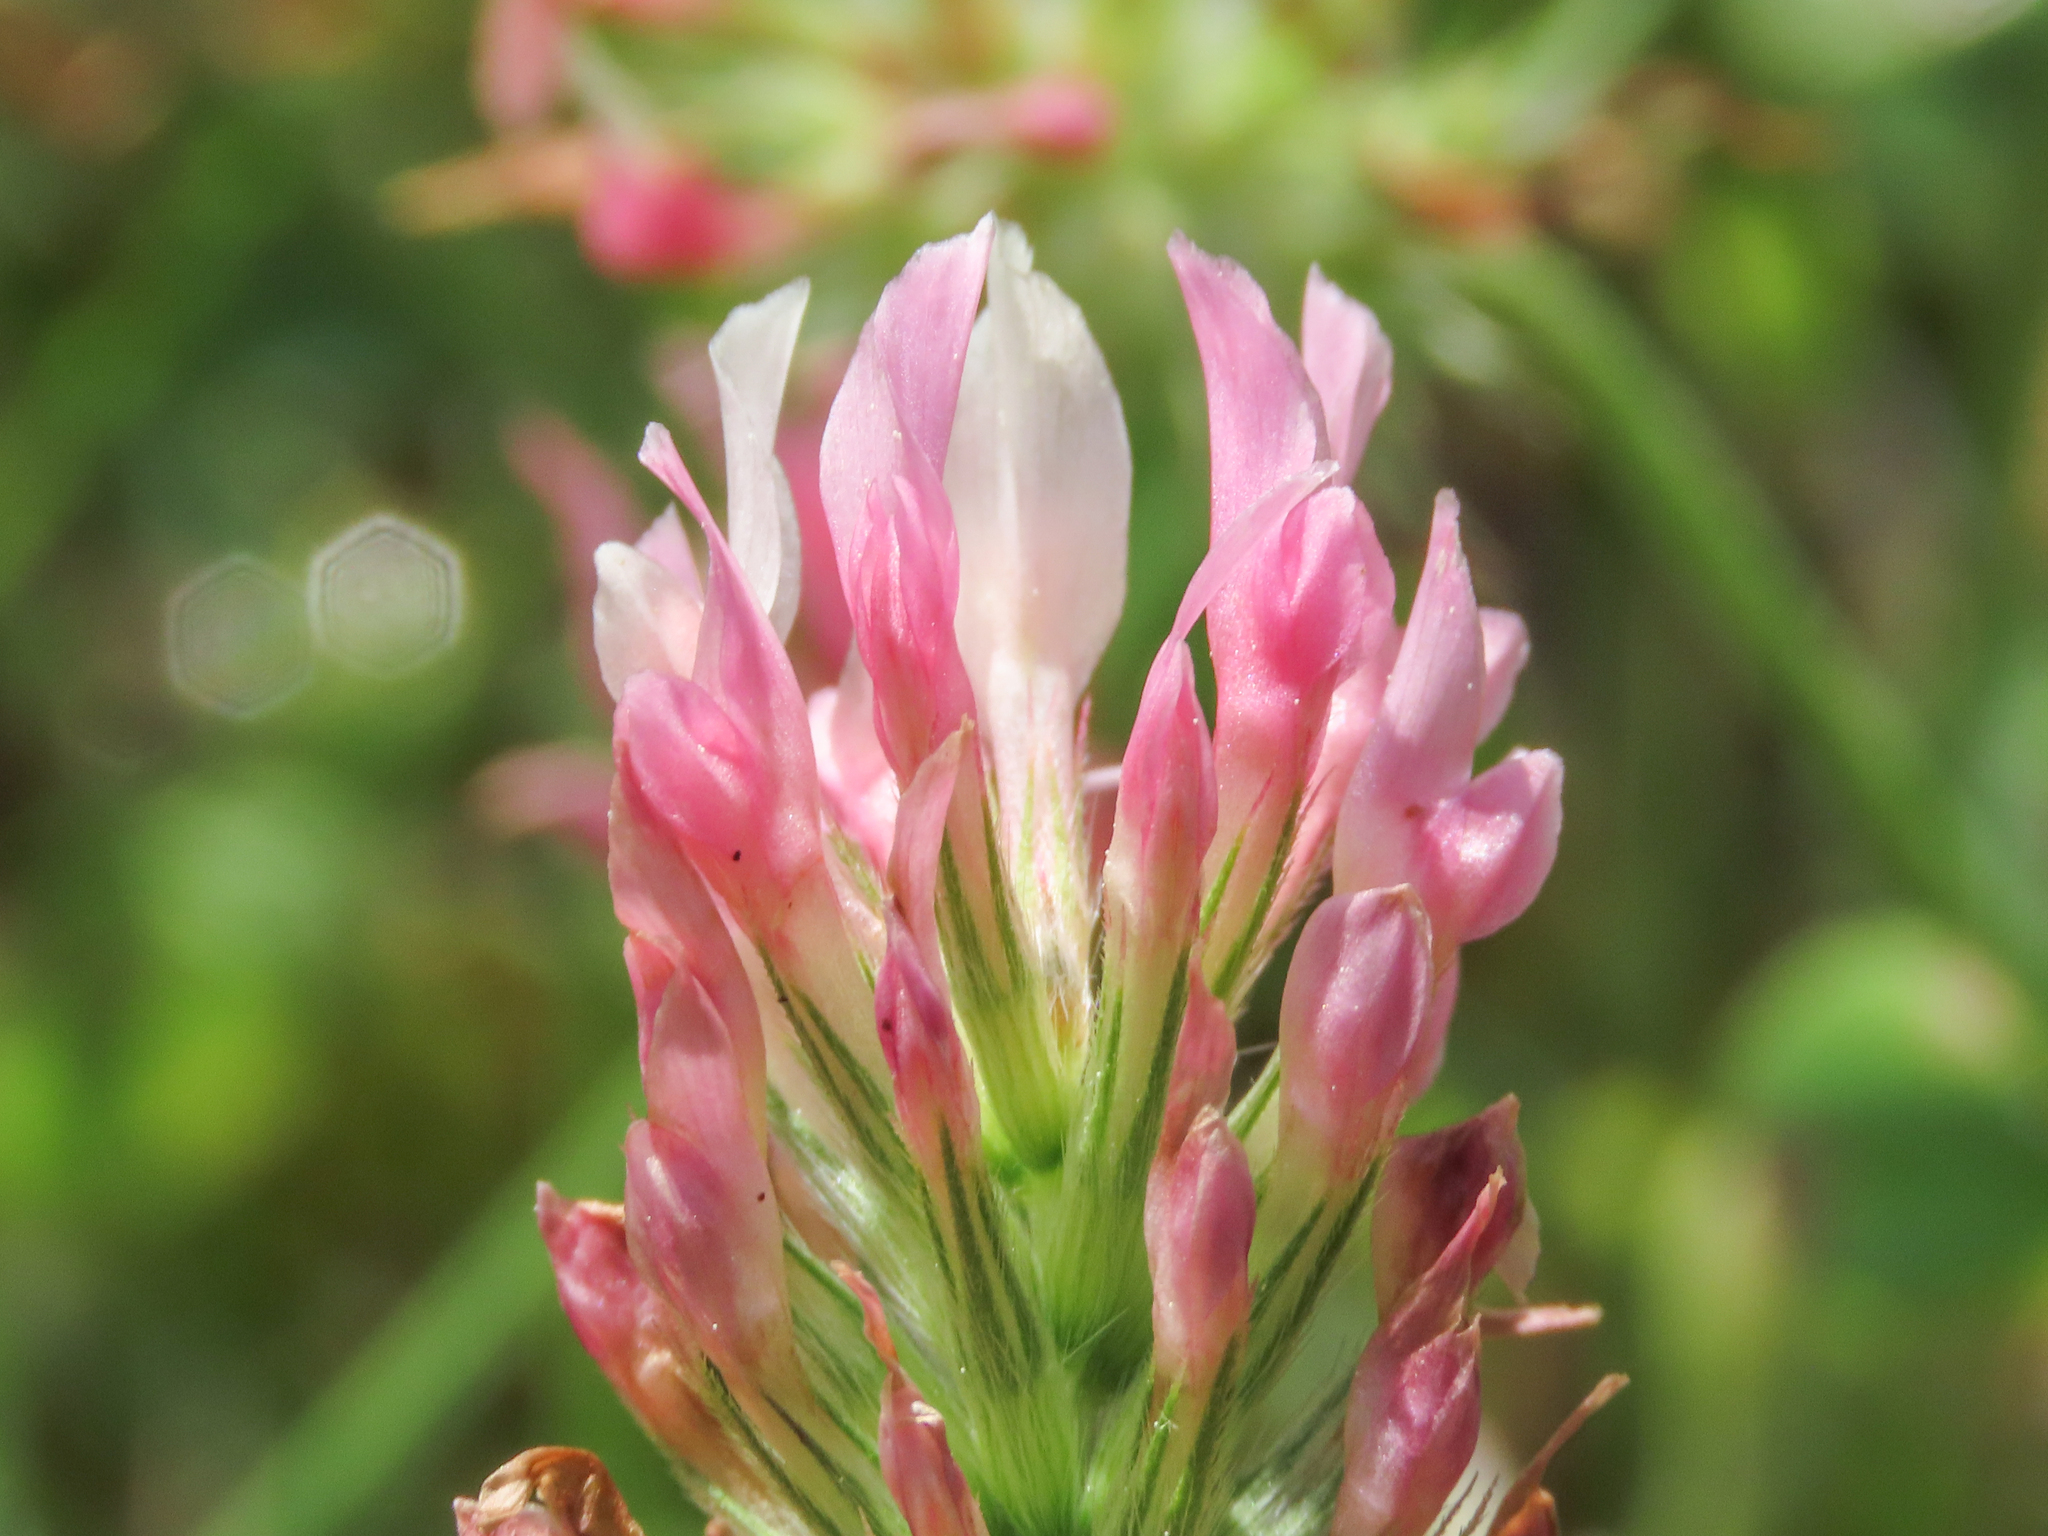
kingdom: Plantae
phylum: Tracheophyta
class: Magnoliopsida
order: Fabales
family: Fabaceae
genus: Trifolium
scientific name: Trifolium incarnatum
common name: Crimson clover
